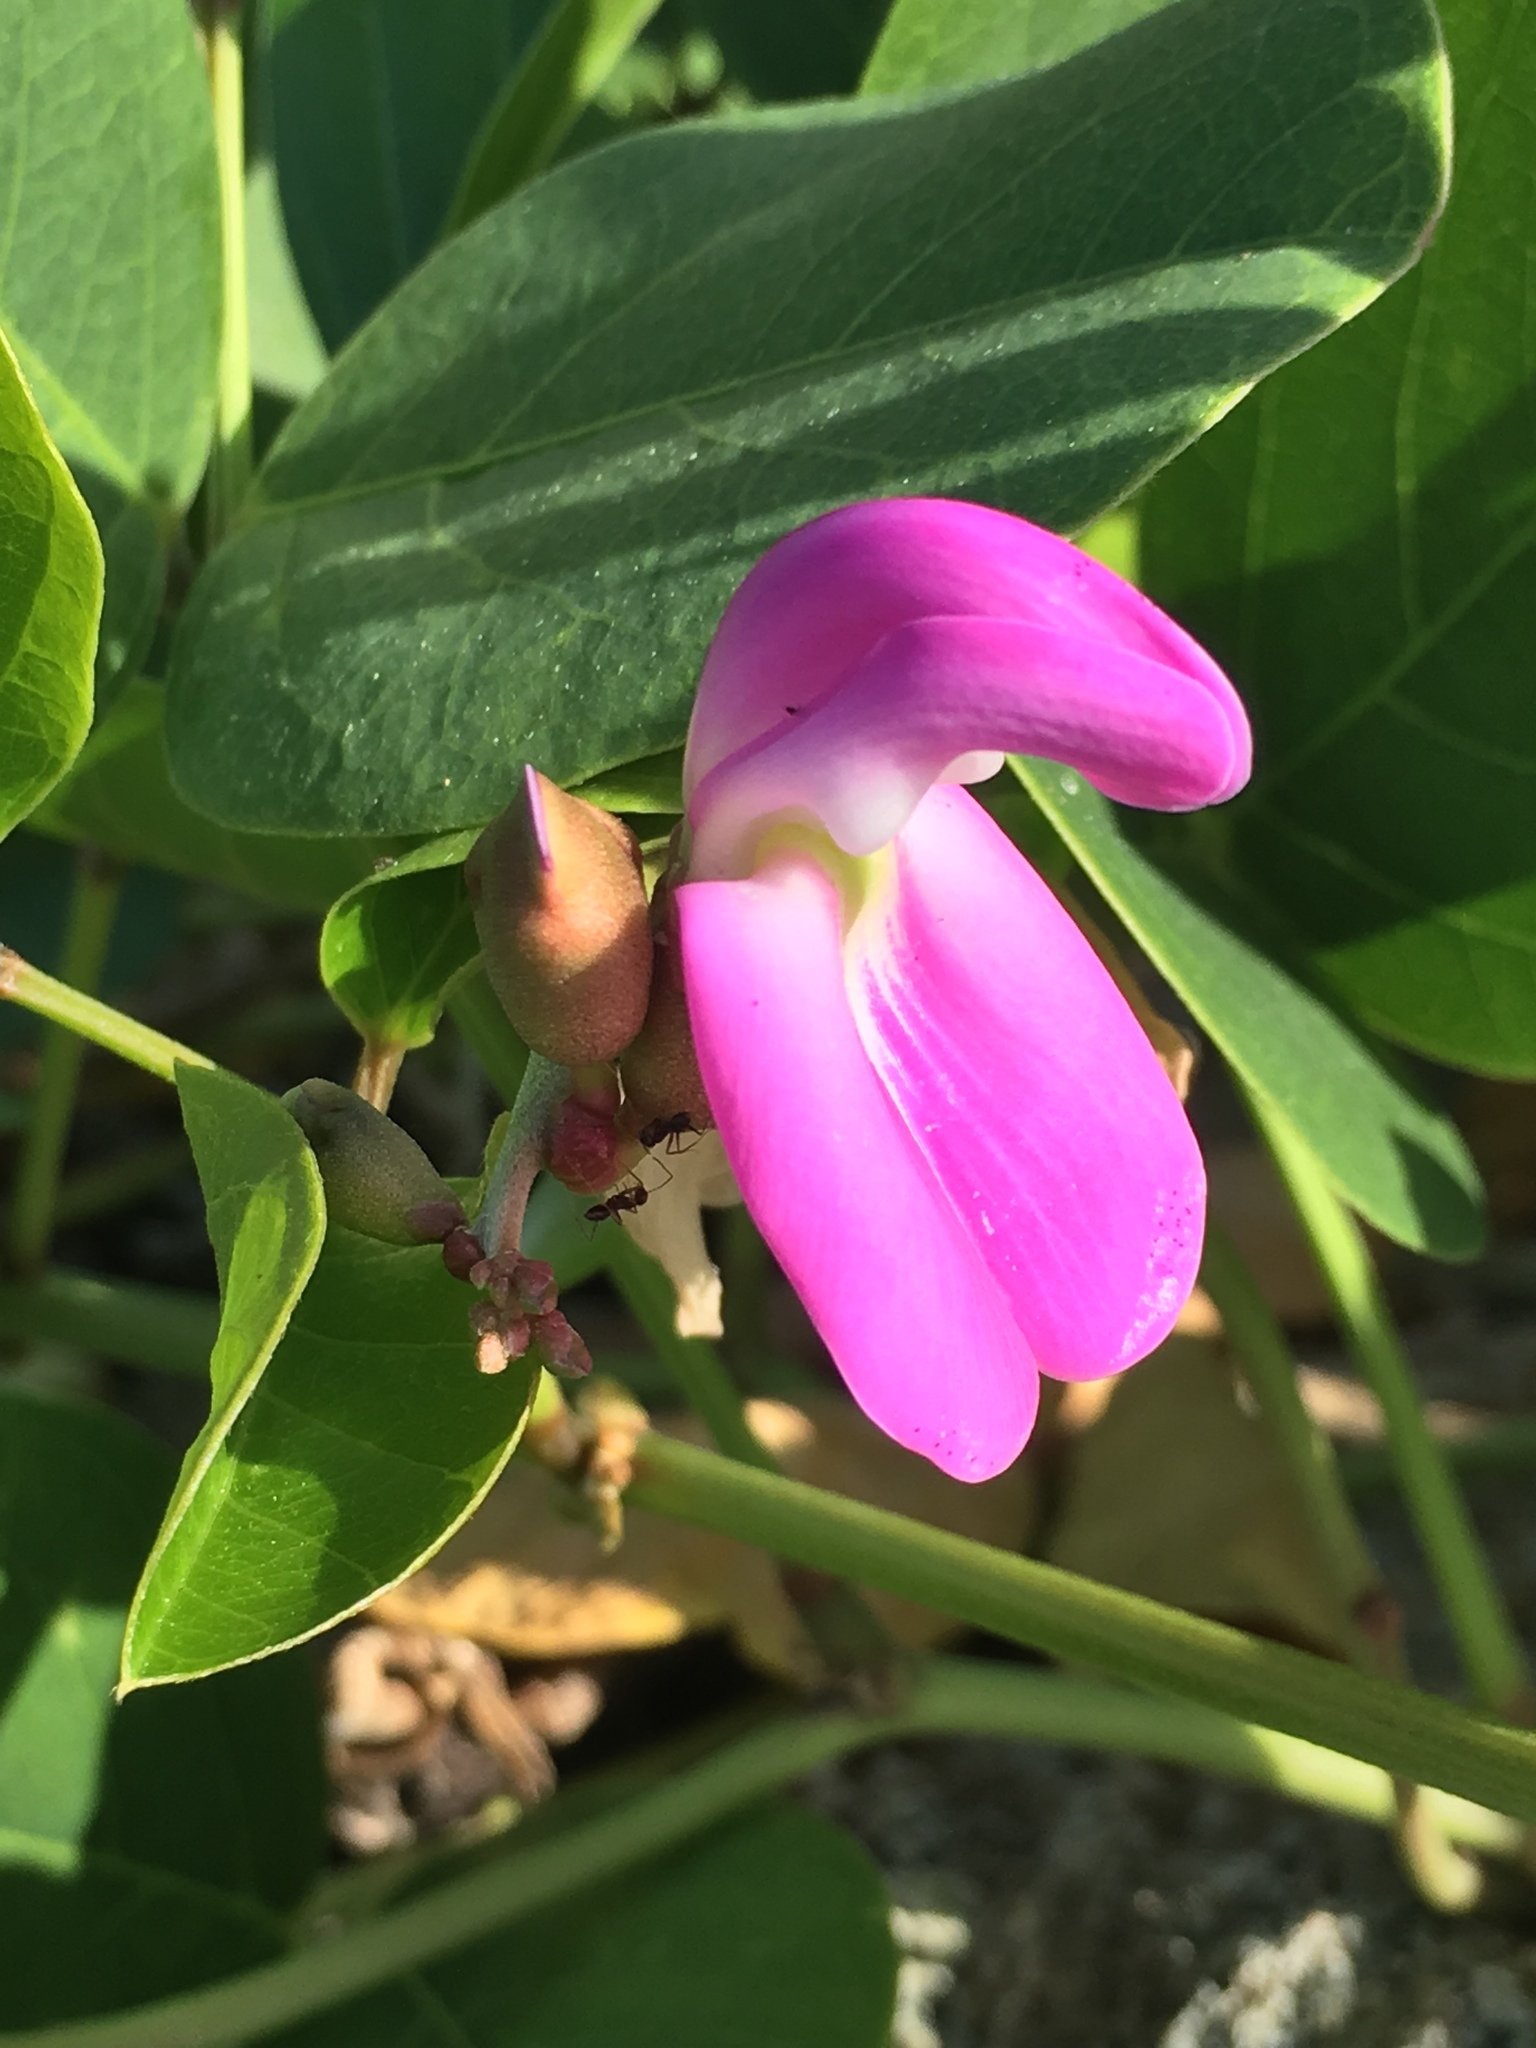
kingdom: Plantae
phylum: Tracheophyta
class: Magnoliopsida
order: Fabales
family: Fabaceae
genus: Canavalia
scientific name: Canavalia rosea
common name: Beach-bean
